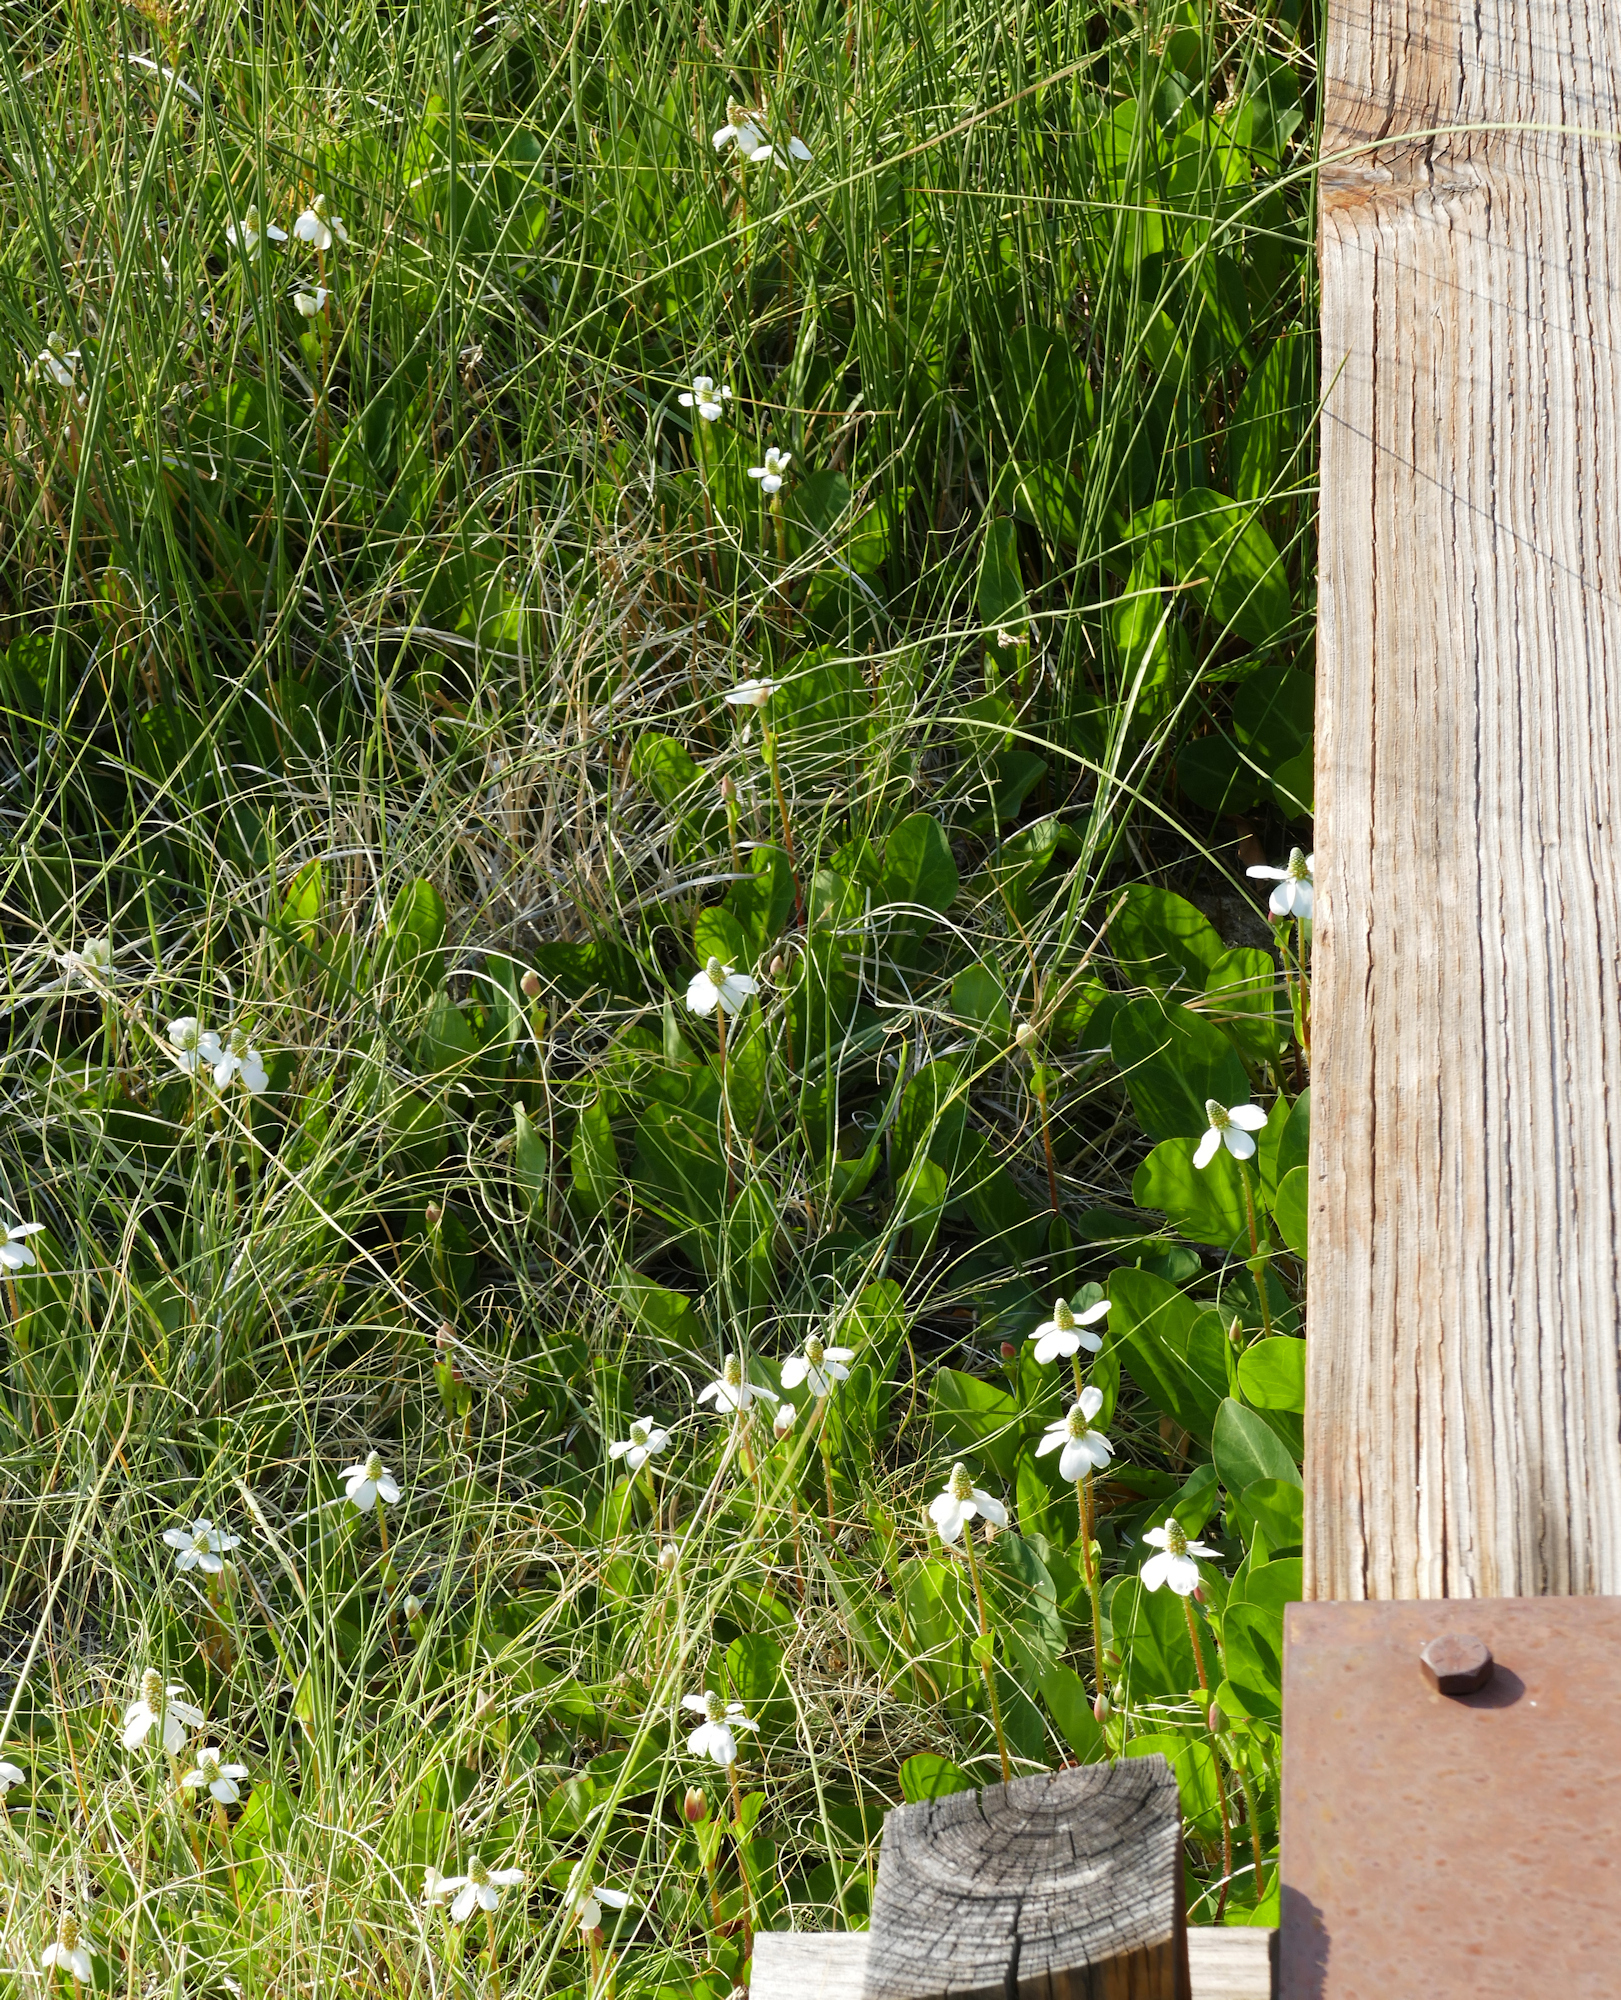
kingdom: Plantae
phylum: Tracheophyta
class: Magnoliopsida
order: Piperales
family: Saururaceae
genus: Anemopsis
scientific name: Anemopsis californica
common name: Apache-beads
